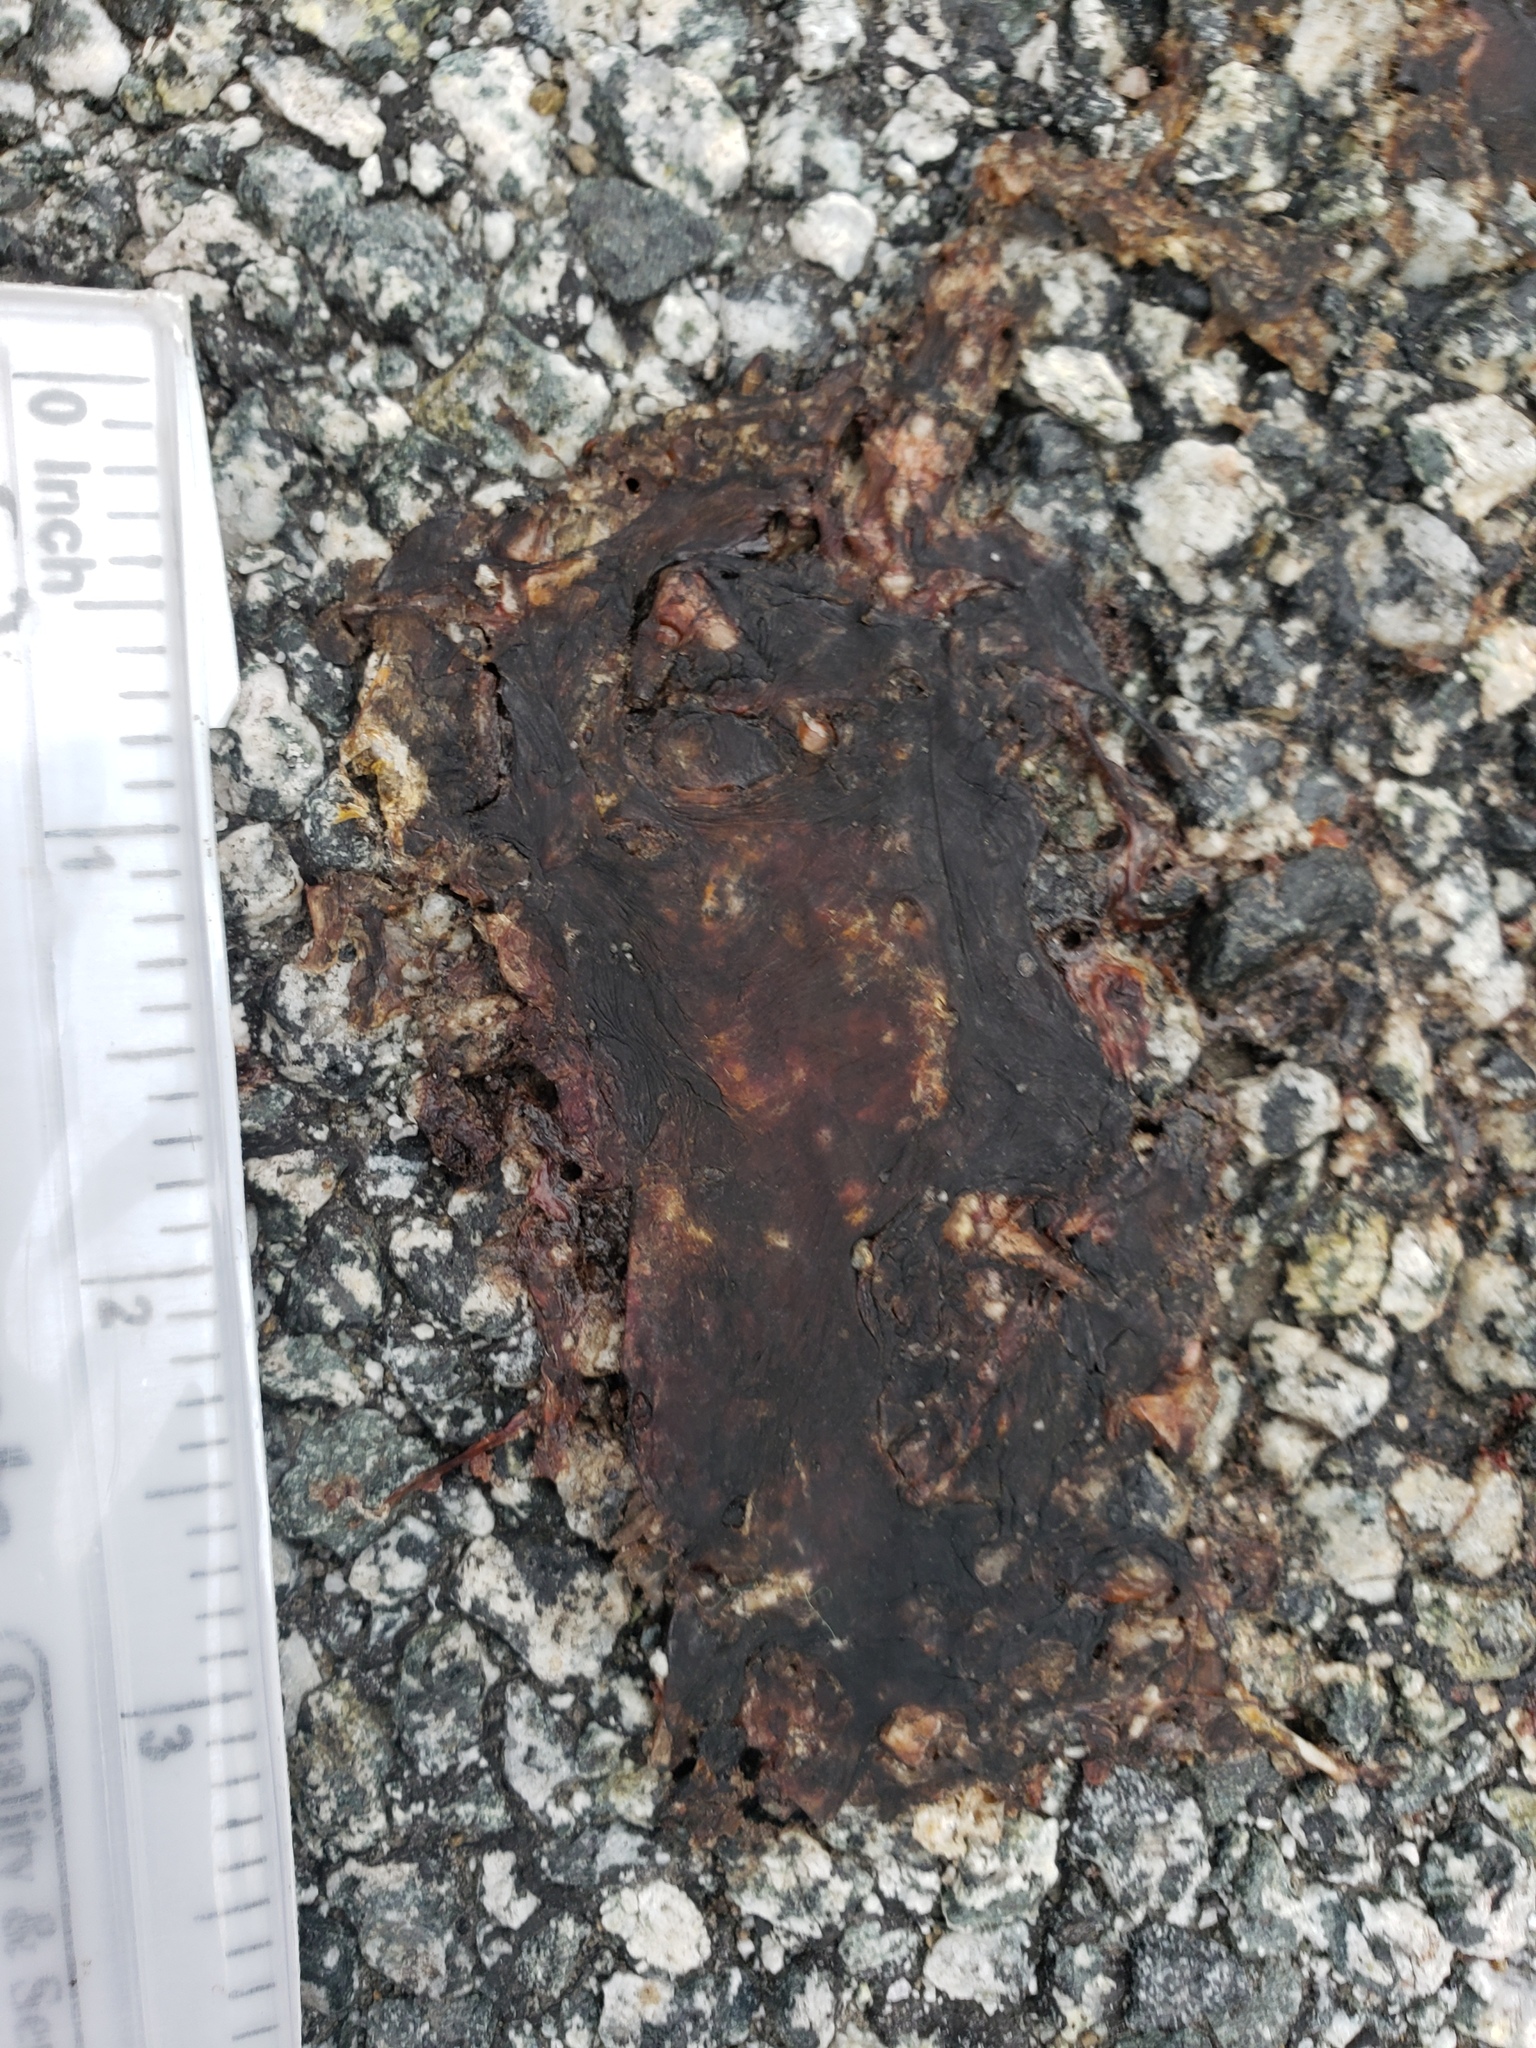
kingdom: Animalia
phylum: Chordata
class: Amphibia
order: Caudata
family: Salamandridae
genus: Taricha
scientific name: Taricha
